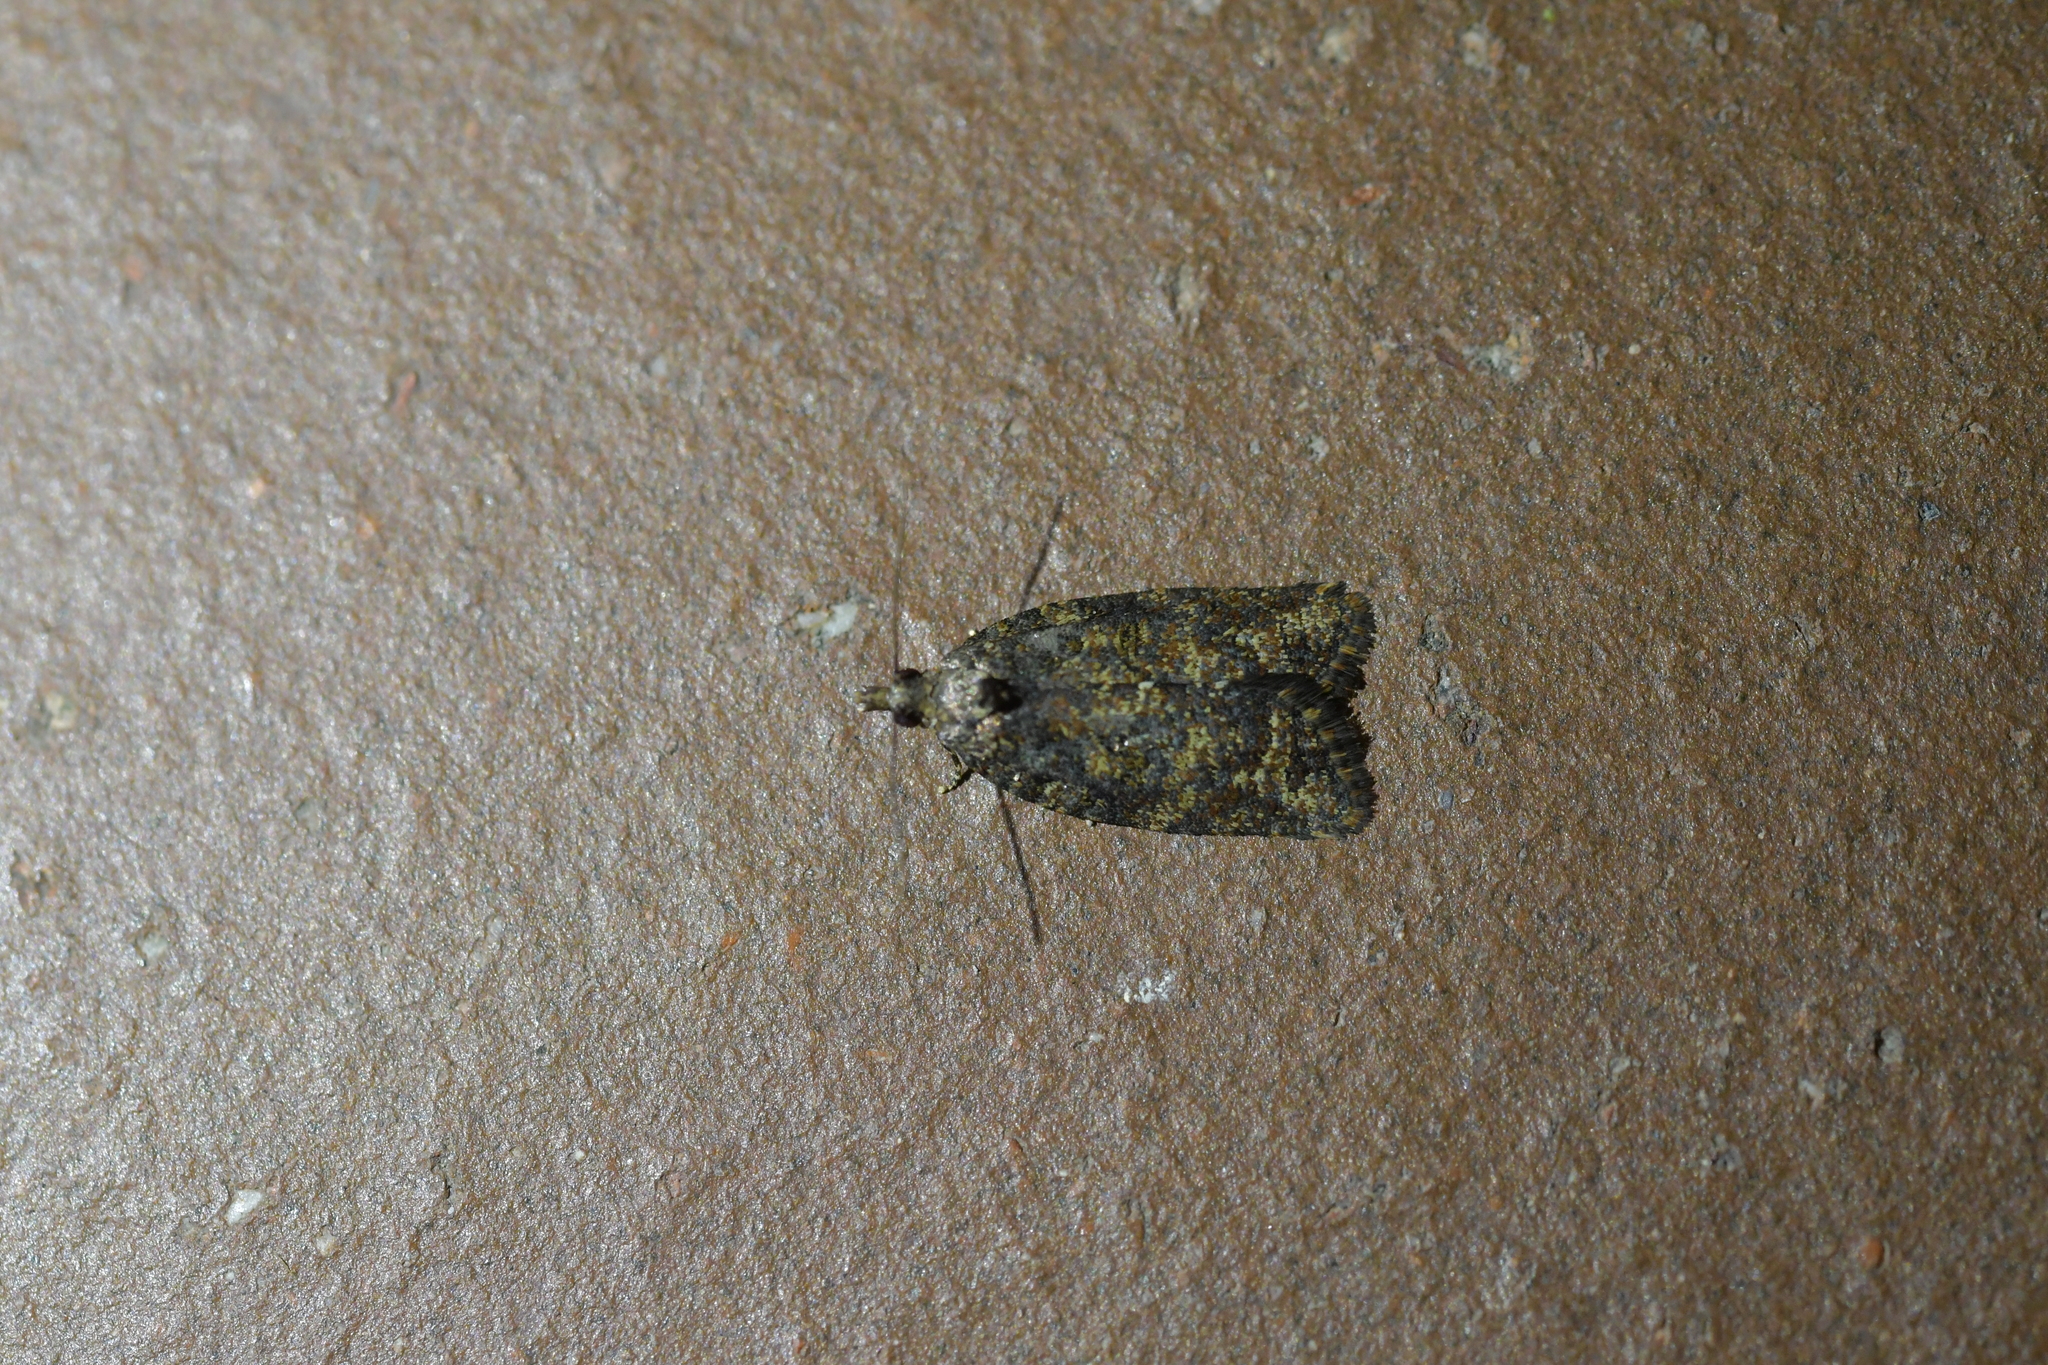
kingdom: Animalia
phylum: Arthropoda
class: Insecta
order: Lepidoptera
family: Tortricidae
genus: Capua
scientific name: Capua intractana
